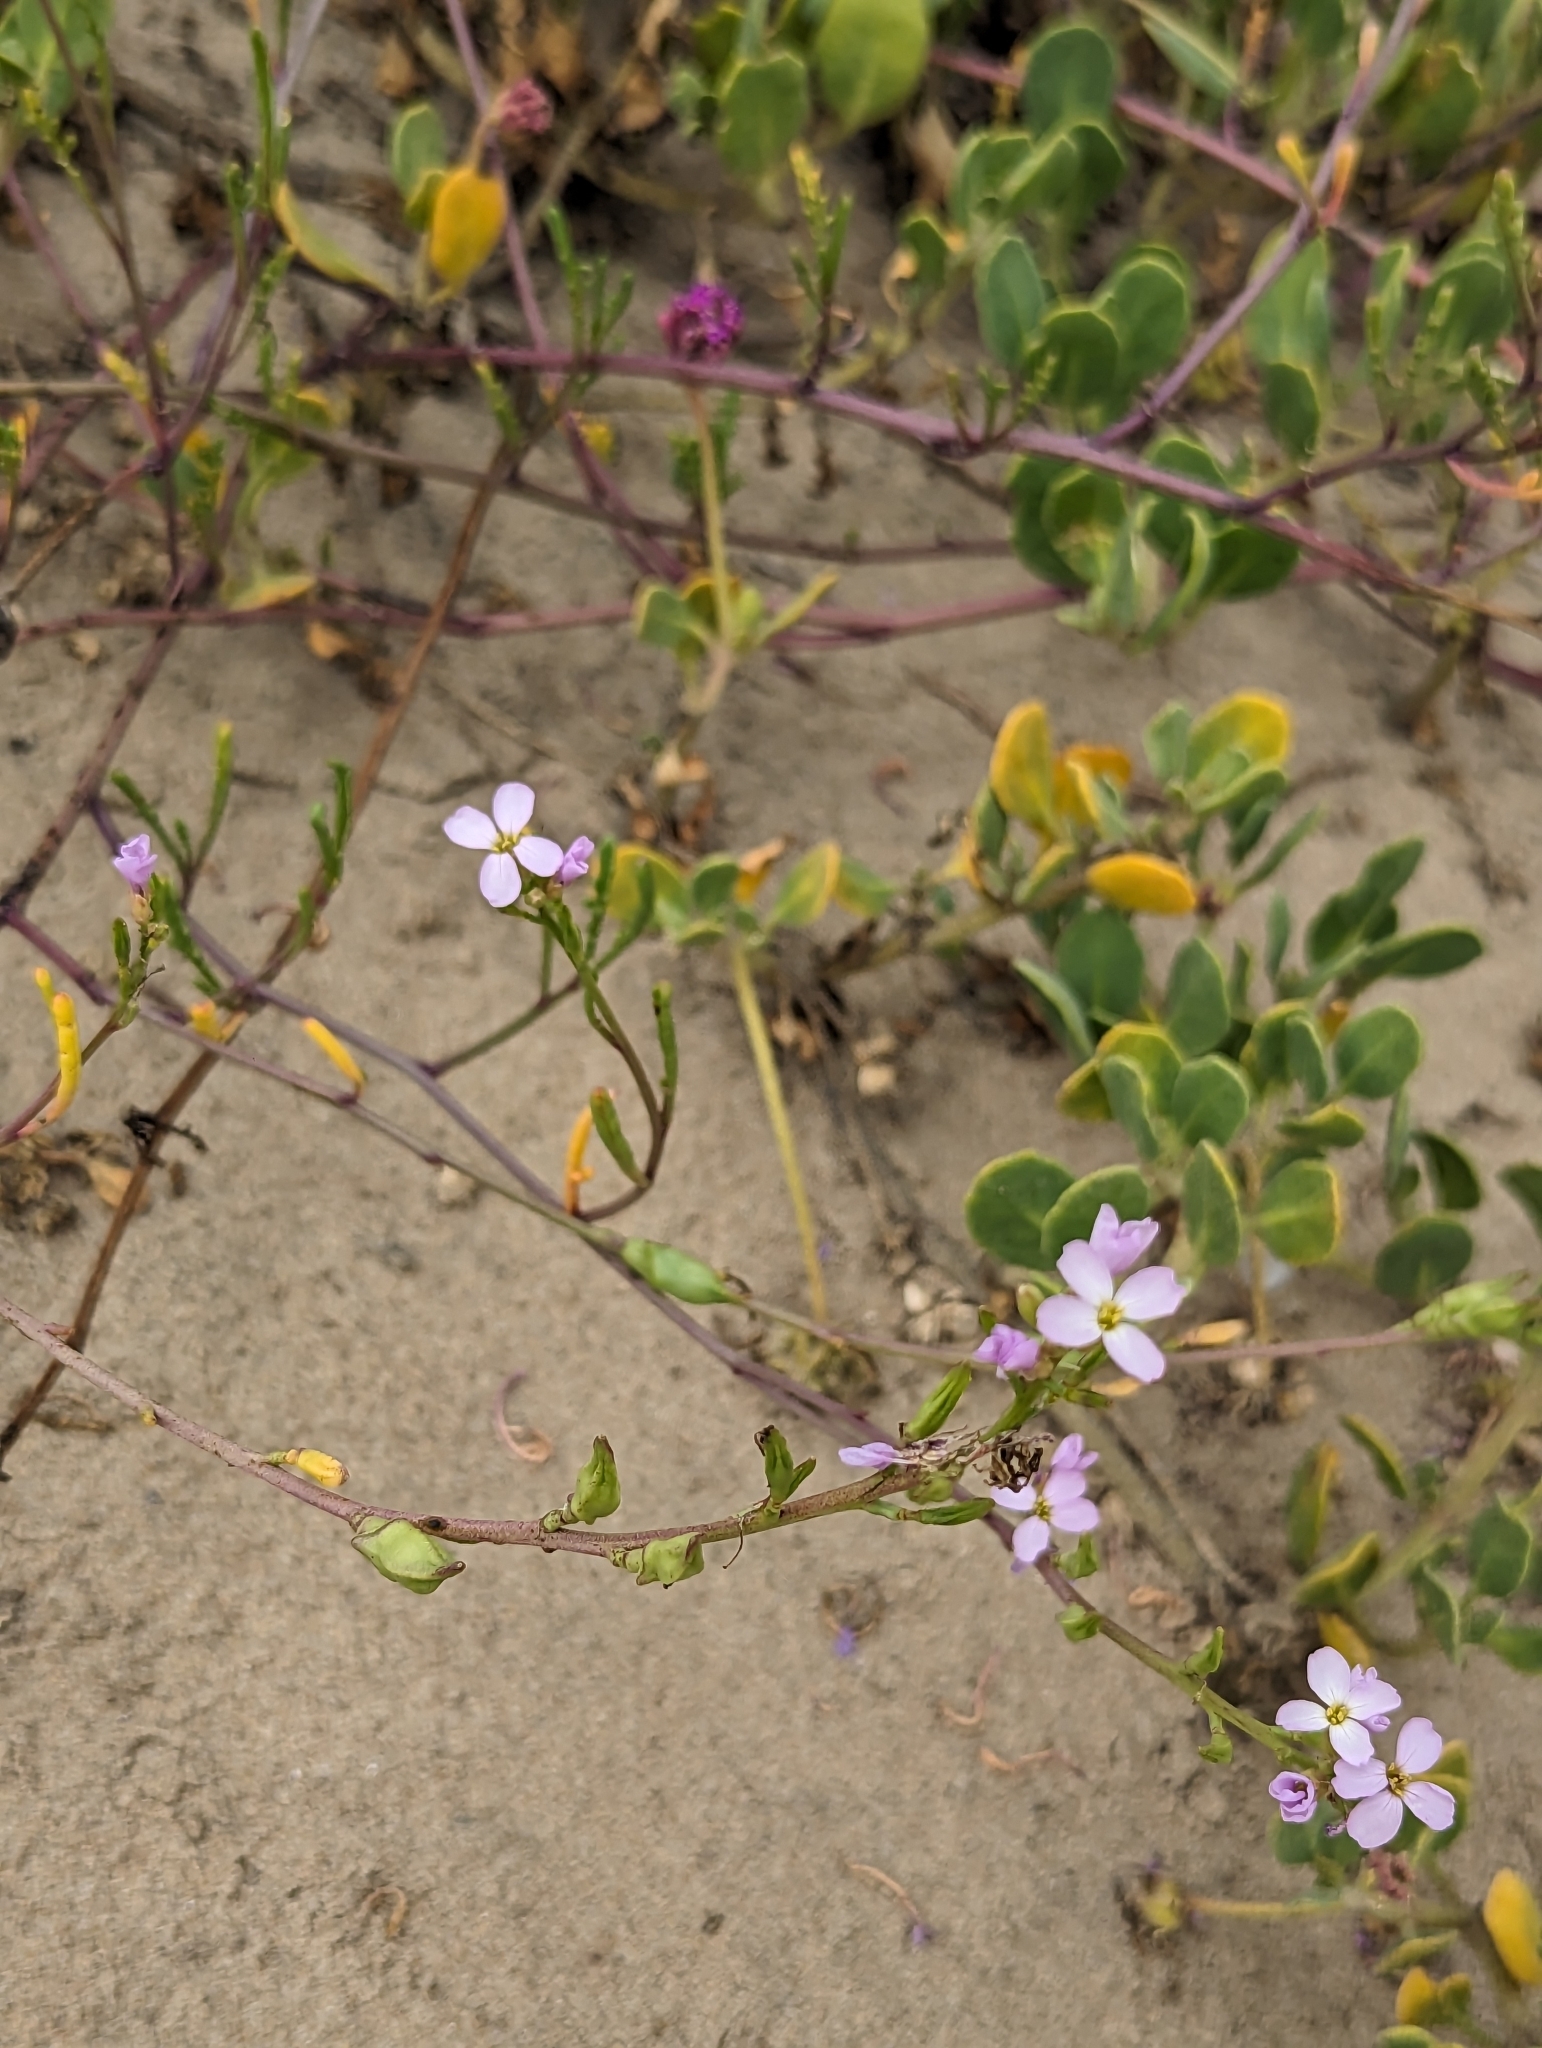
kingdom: Plantae
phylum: Tracheophyta
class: Magnoliopsida
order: Brassicales
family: Brassicaceae
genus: Cakile
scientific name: Cakile maritima
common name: Sea rocket
